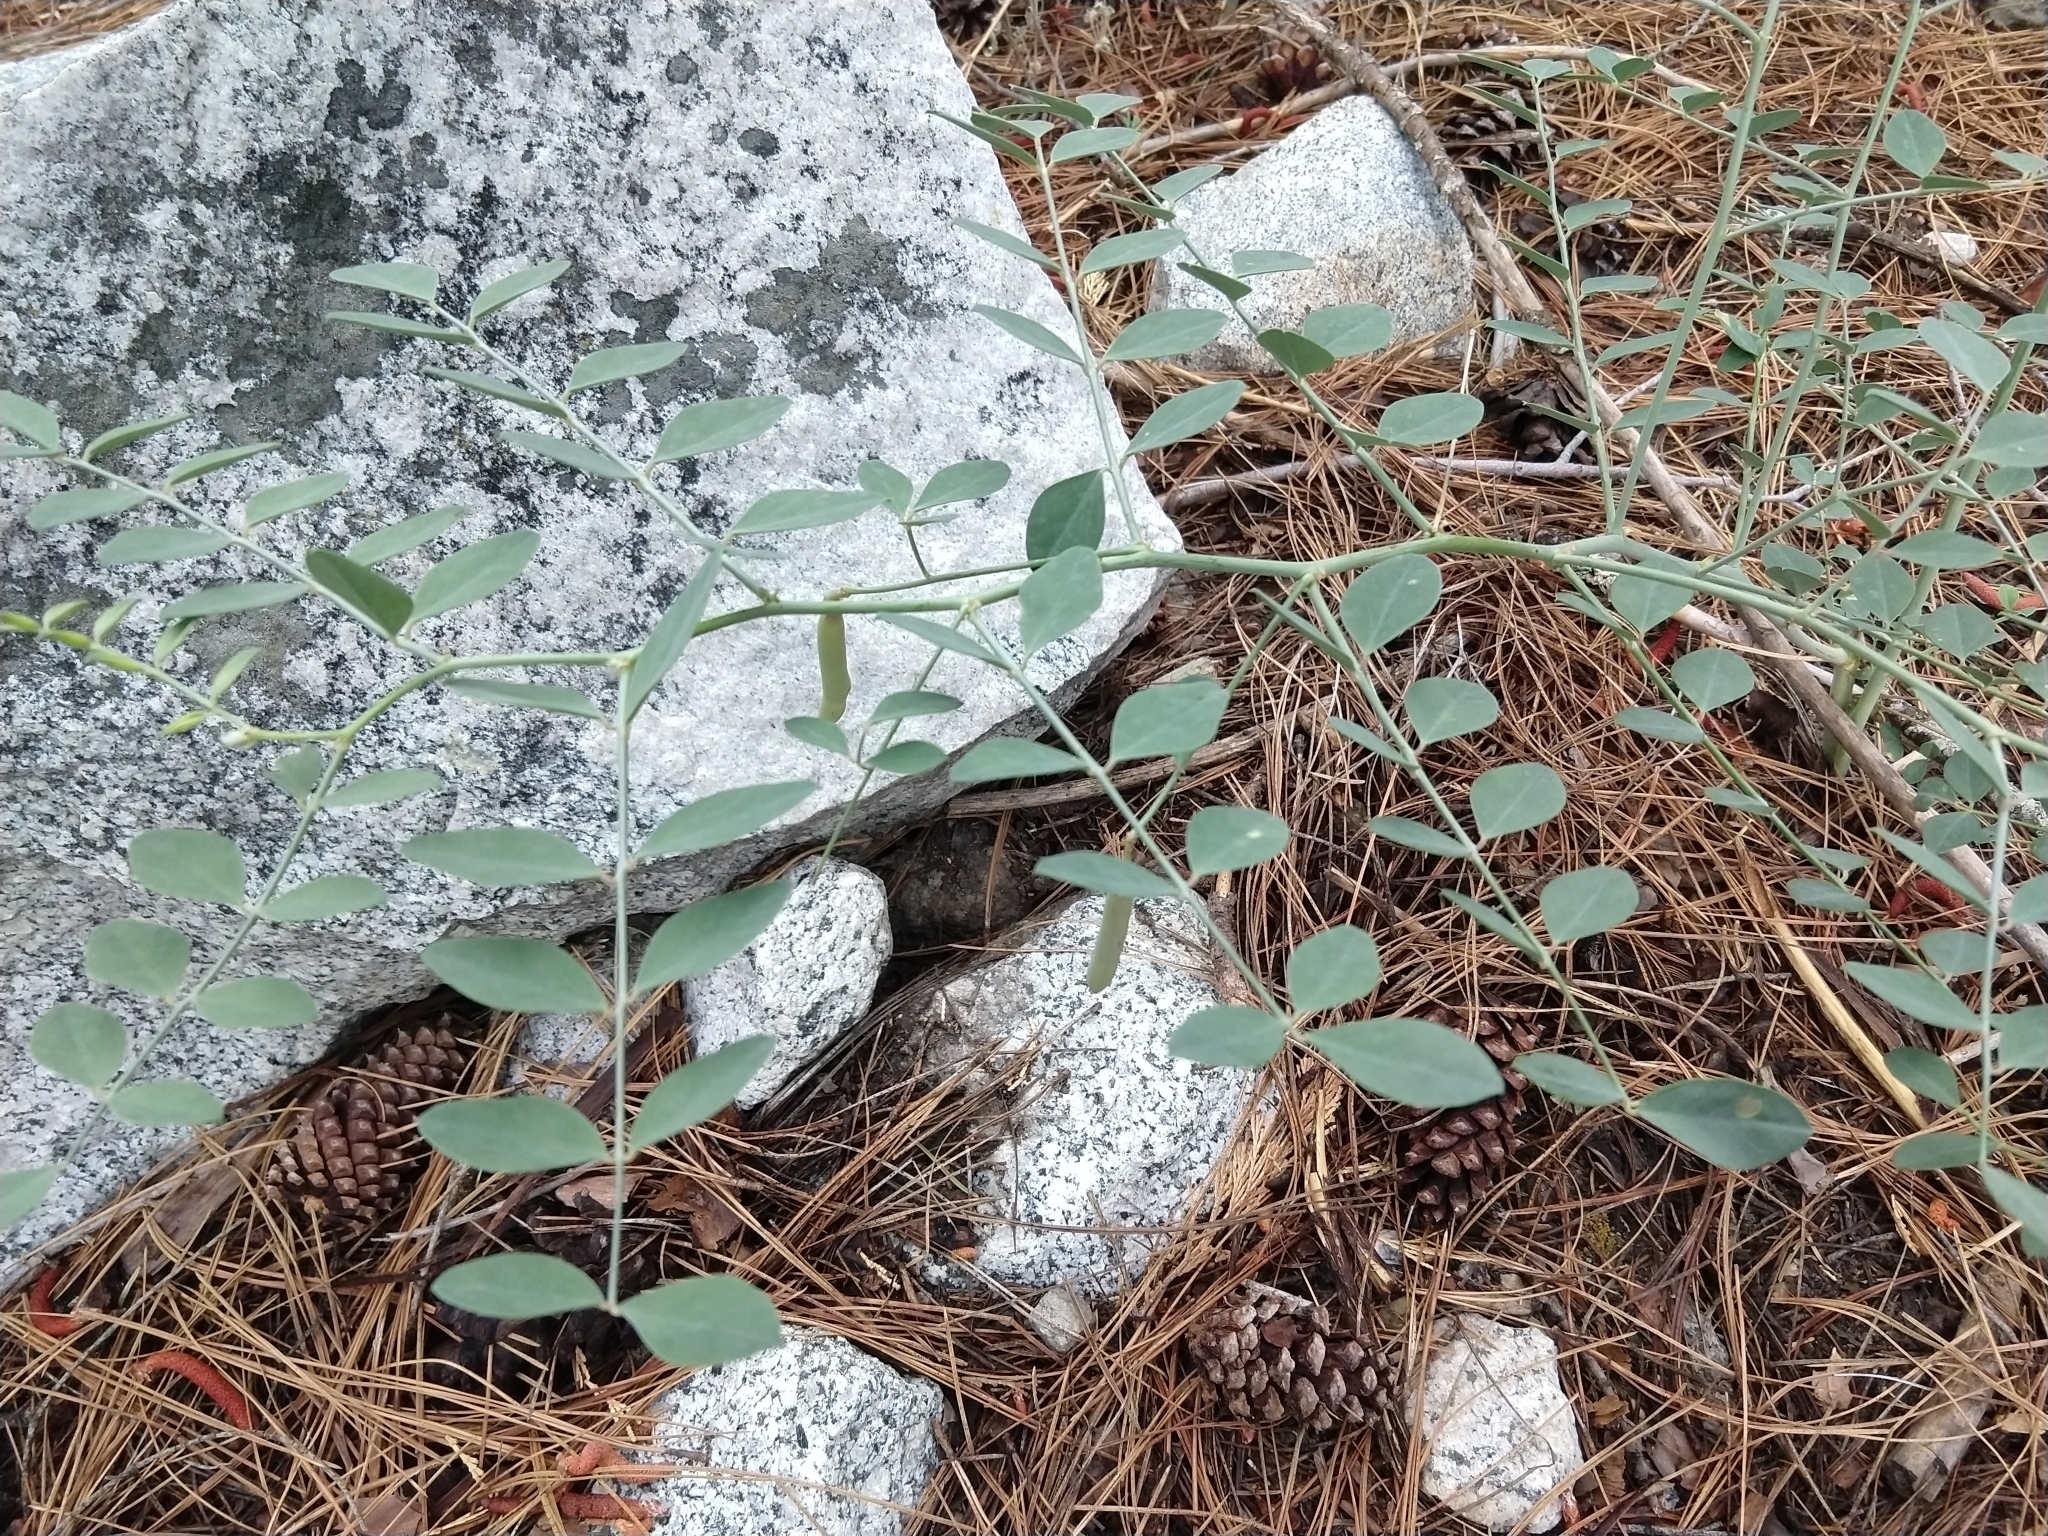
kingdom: Plantae
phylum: Tracheophyta
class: Magnoliopsida
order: Fabales
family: Fabaceae
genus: Hosackia
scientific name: Hosackia crassifolia
